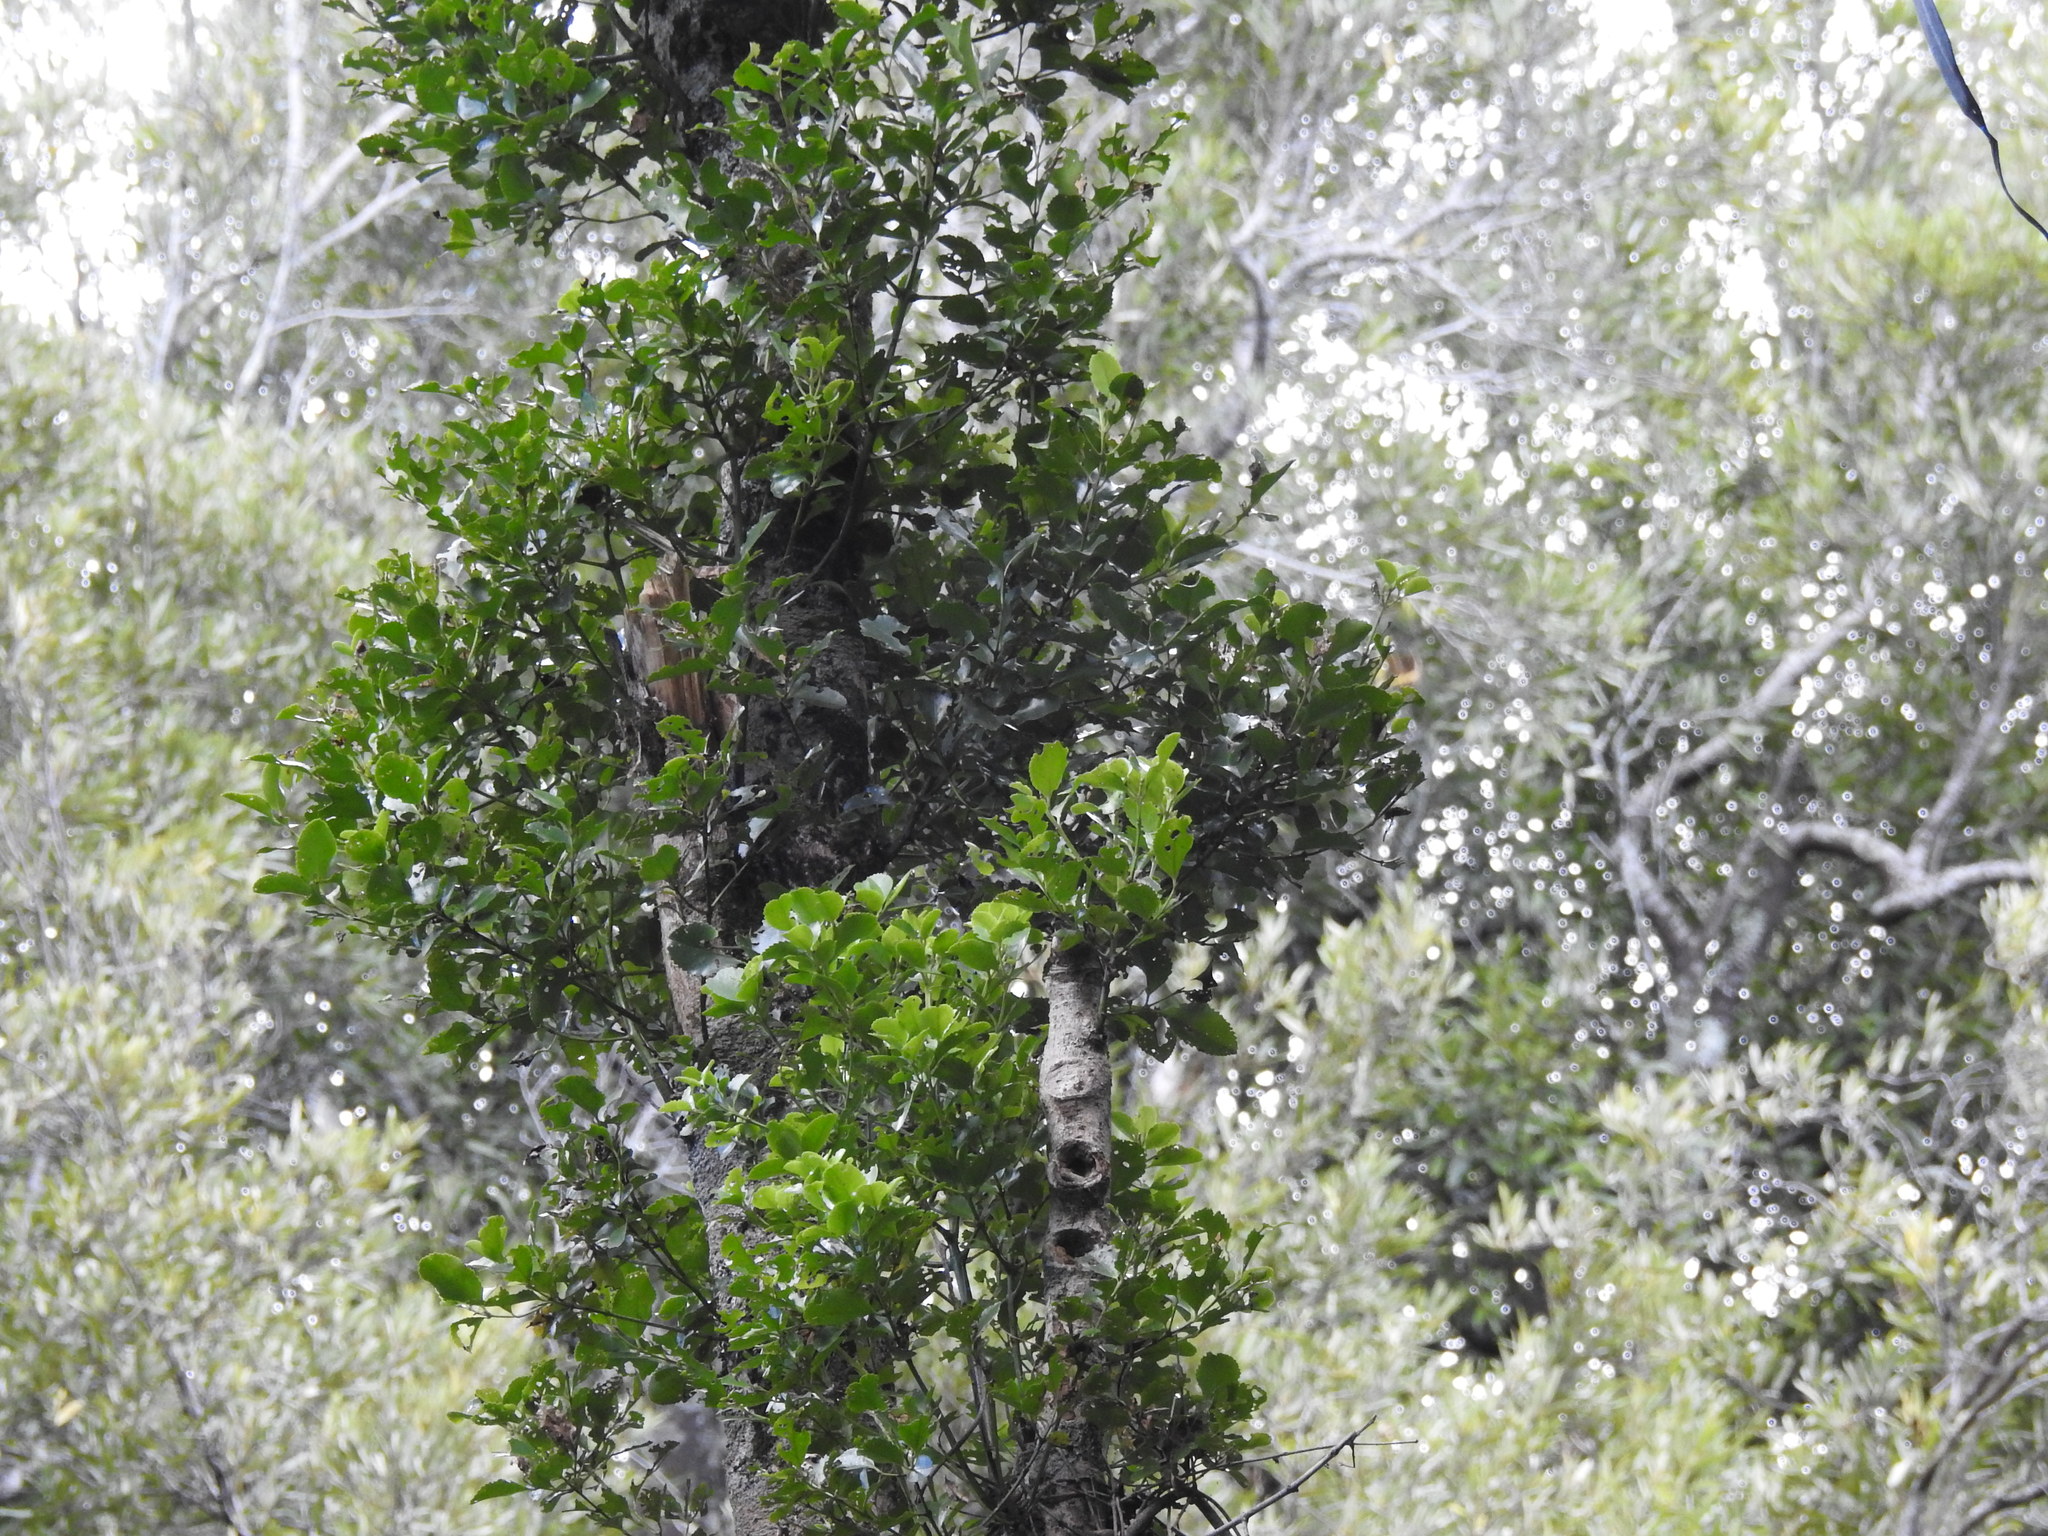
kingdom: Plantae
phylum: Tracheophyta
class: Magnoliopsida
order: Laurales
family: Atherospermataceae
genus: Laurelia
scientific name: Laurelia novae-zelandiae
